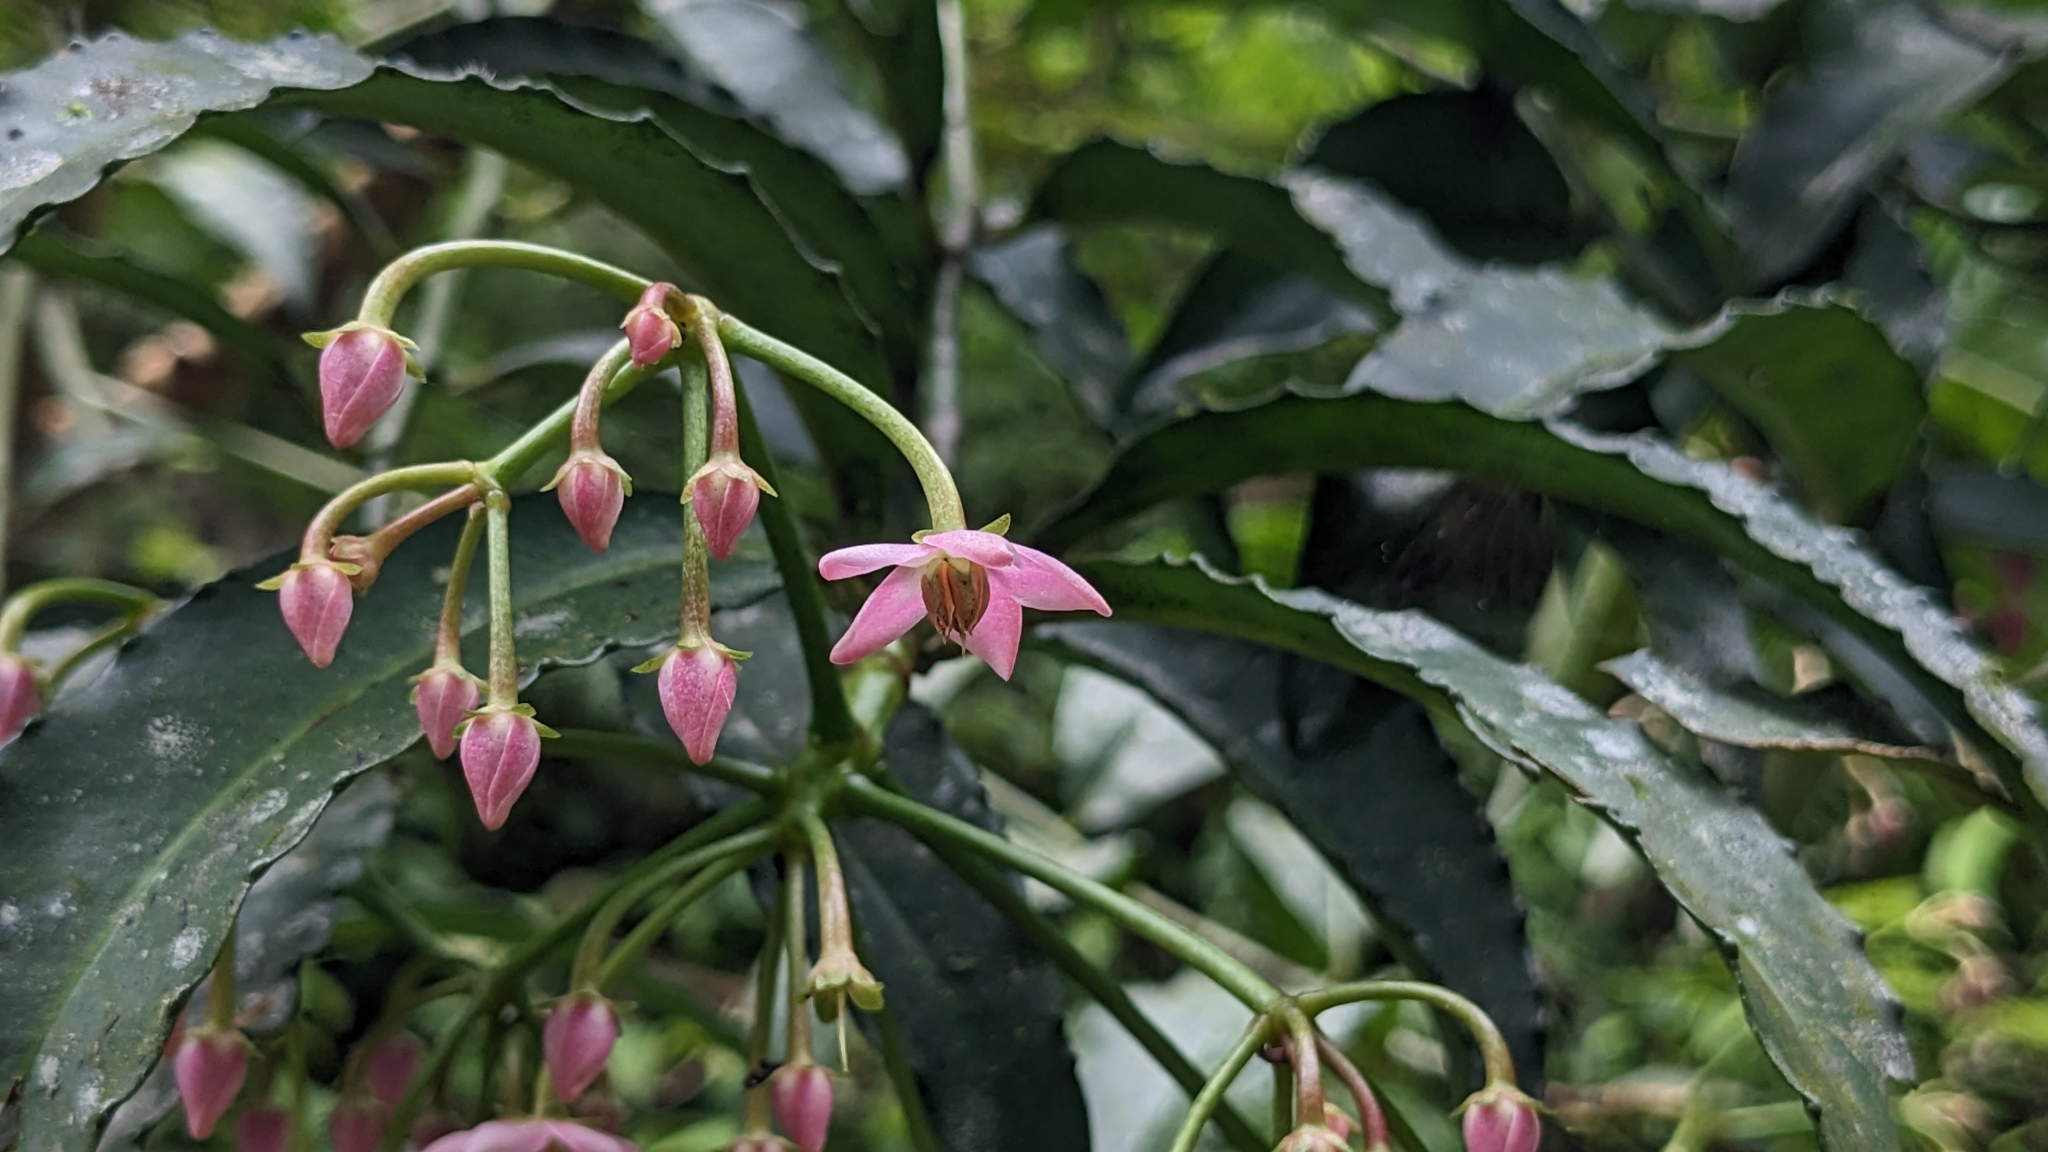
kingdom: Plantae
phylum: Tracheophyta
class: Magnoliopsida
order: Ericales
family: Primulaceae
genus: Ardisia
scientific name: Ardisia polysticta
